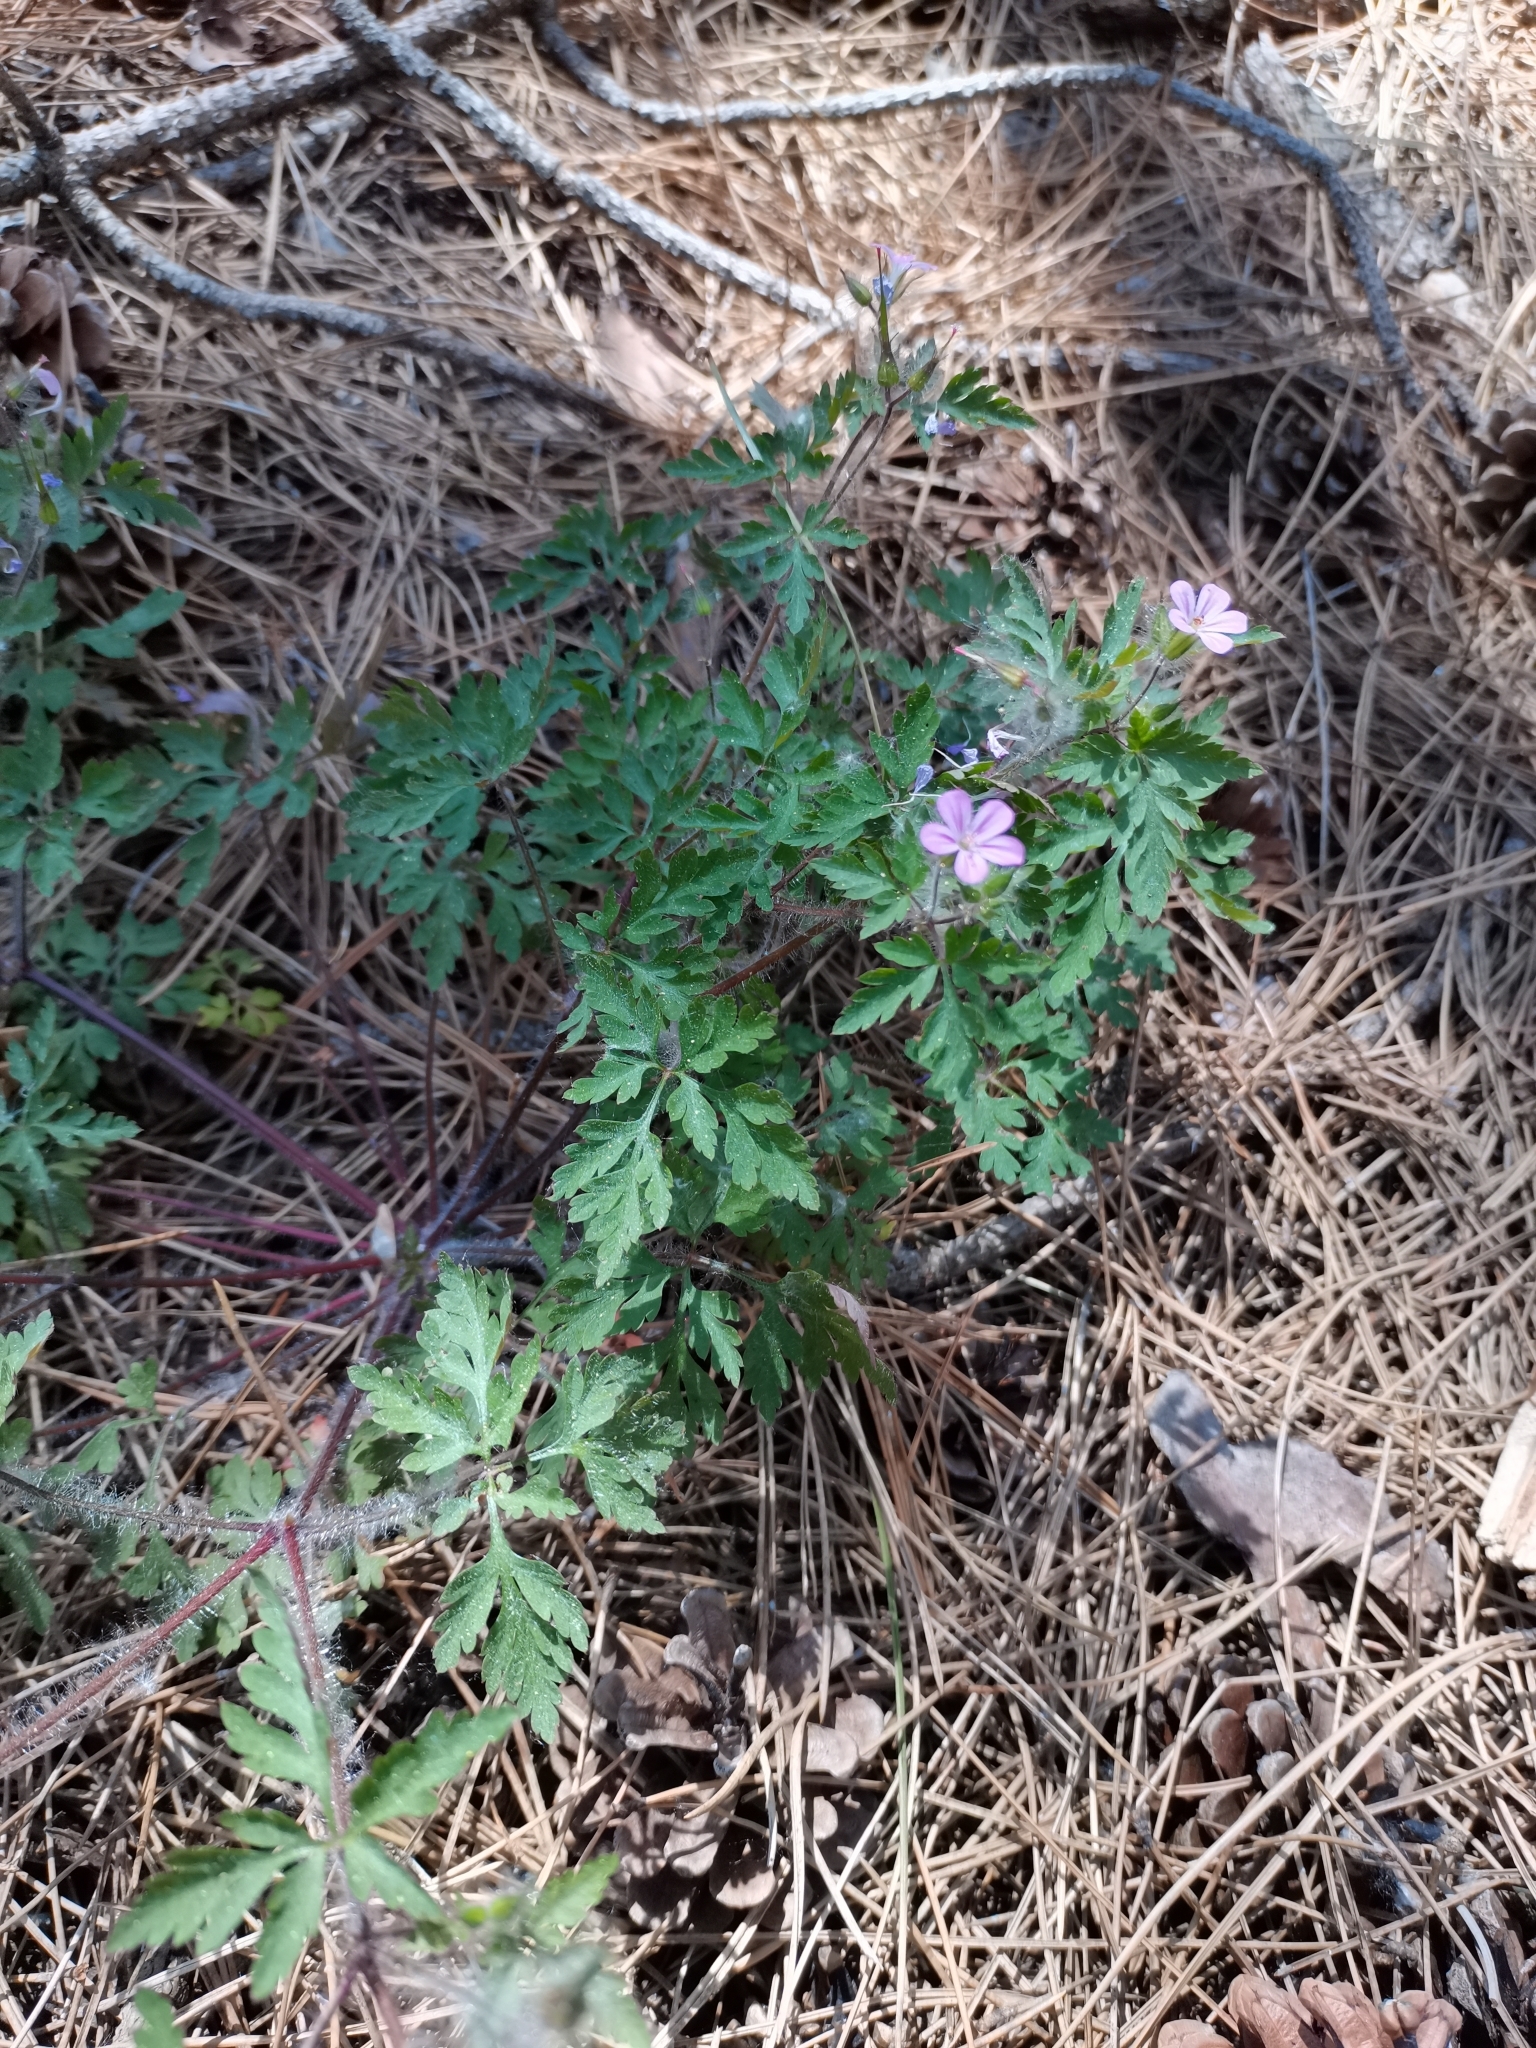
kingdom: Plantae
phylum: Tracheophyta
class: Magnoliopsida
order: Geraniales
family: Geraniaceae
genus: Geranium
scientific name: Geranium robertianum
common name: Herb-robert
